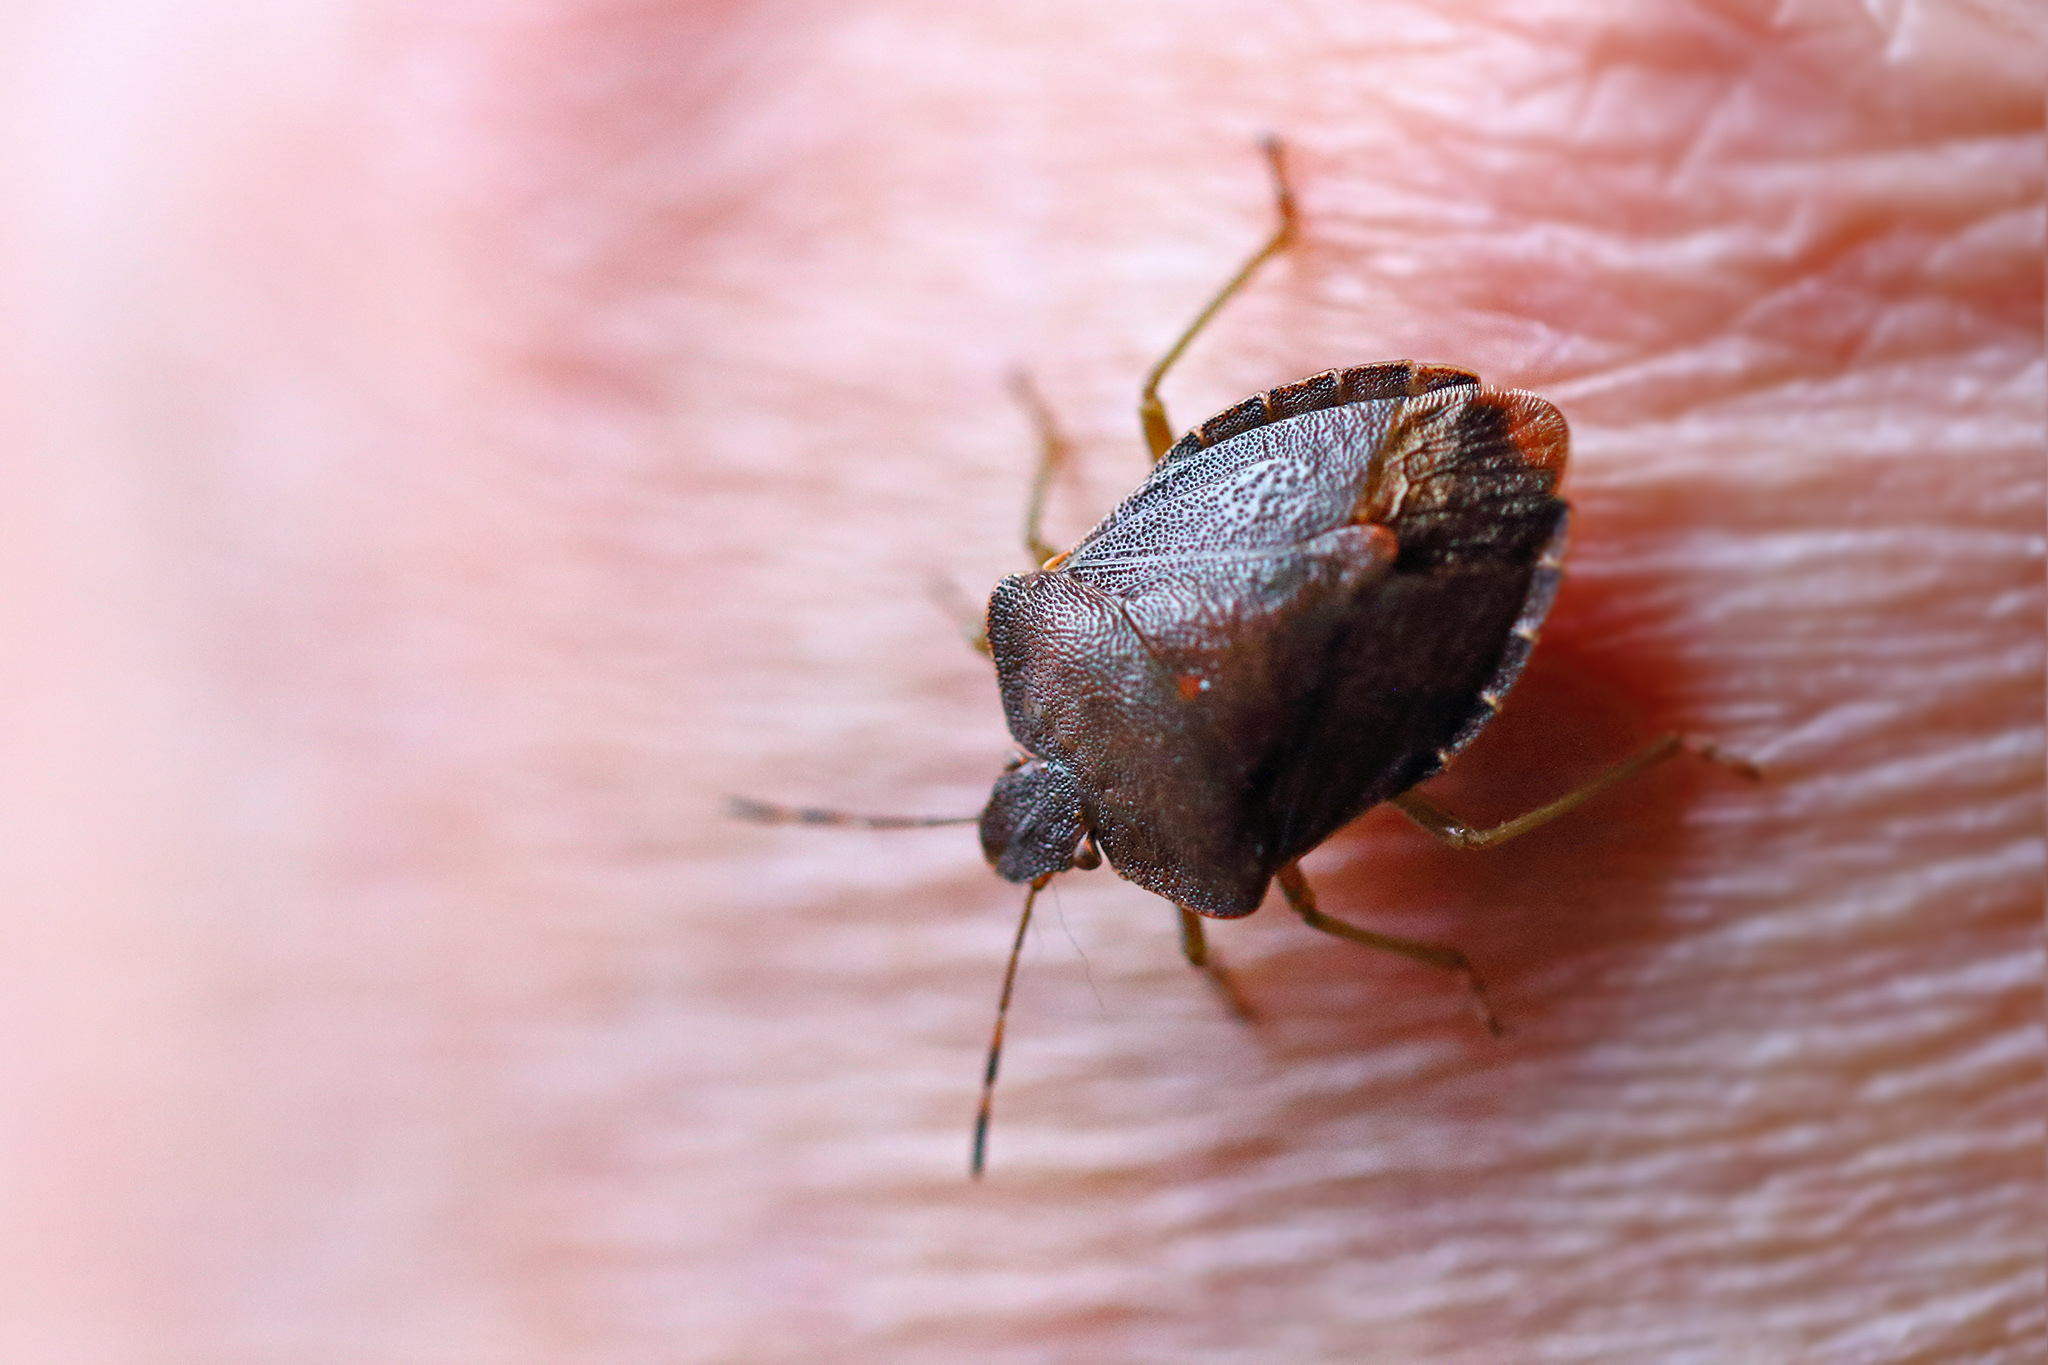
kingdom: Animalia
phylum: Arthropoda
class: Insecta
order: Hemiptera
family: Pentatomidae
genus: Palomena
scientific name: Palomena prasina
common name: Green shieldbug
